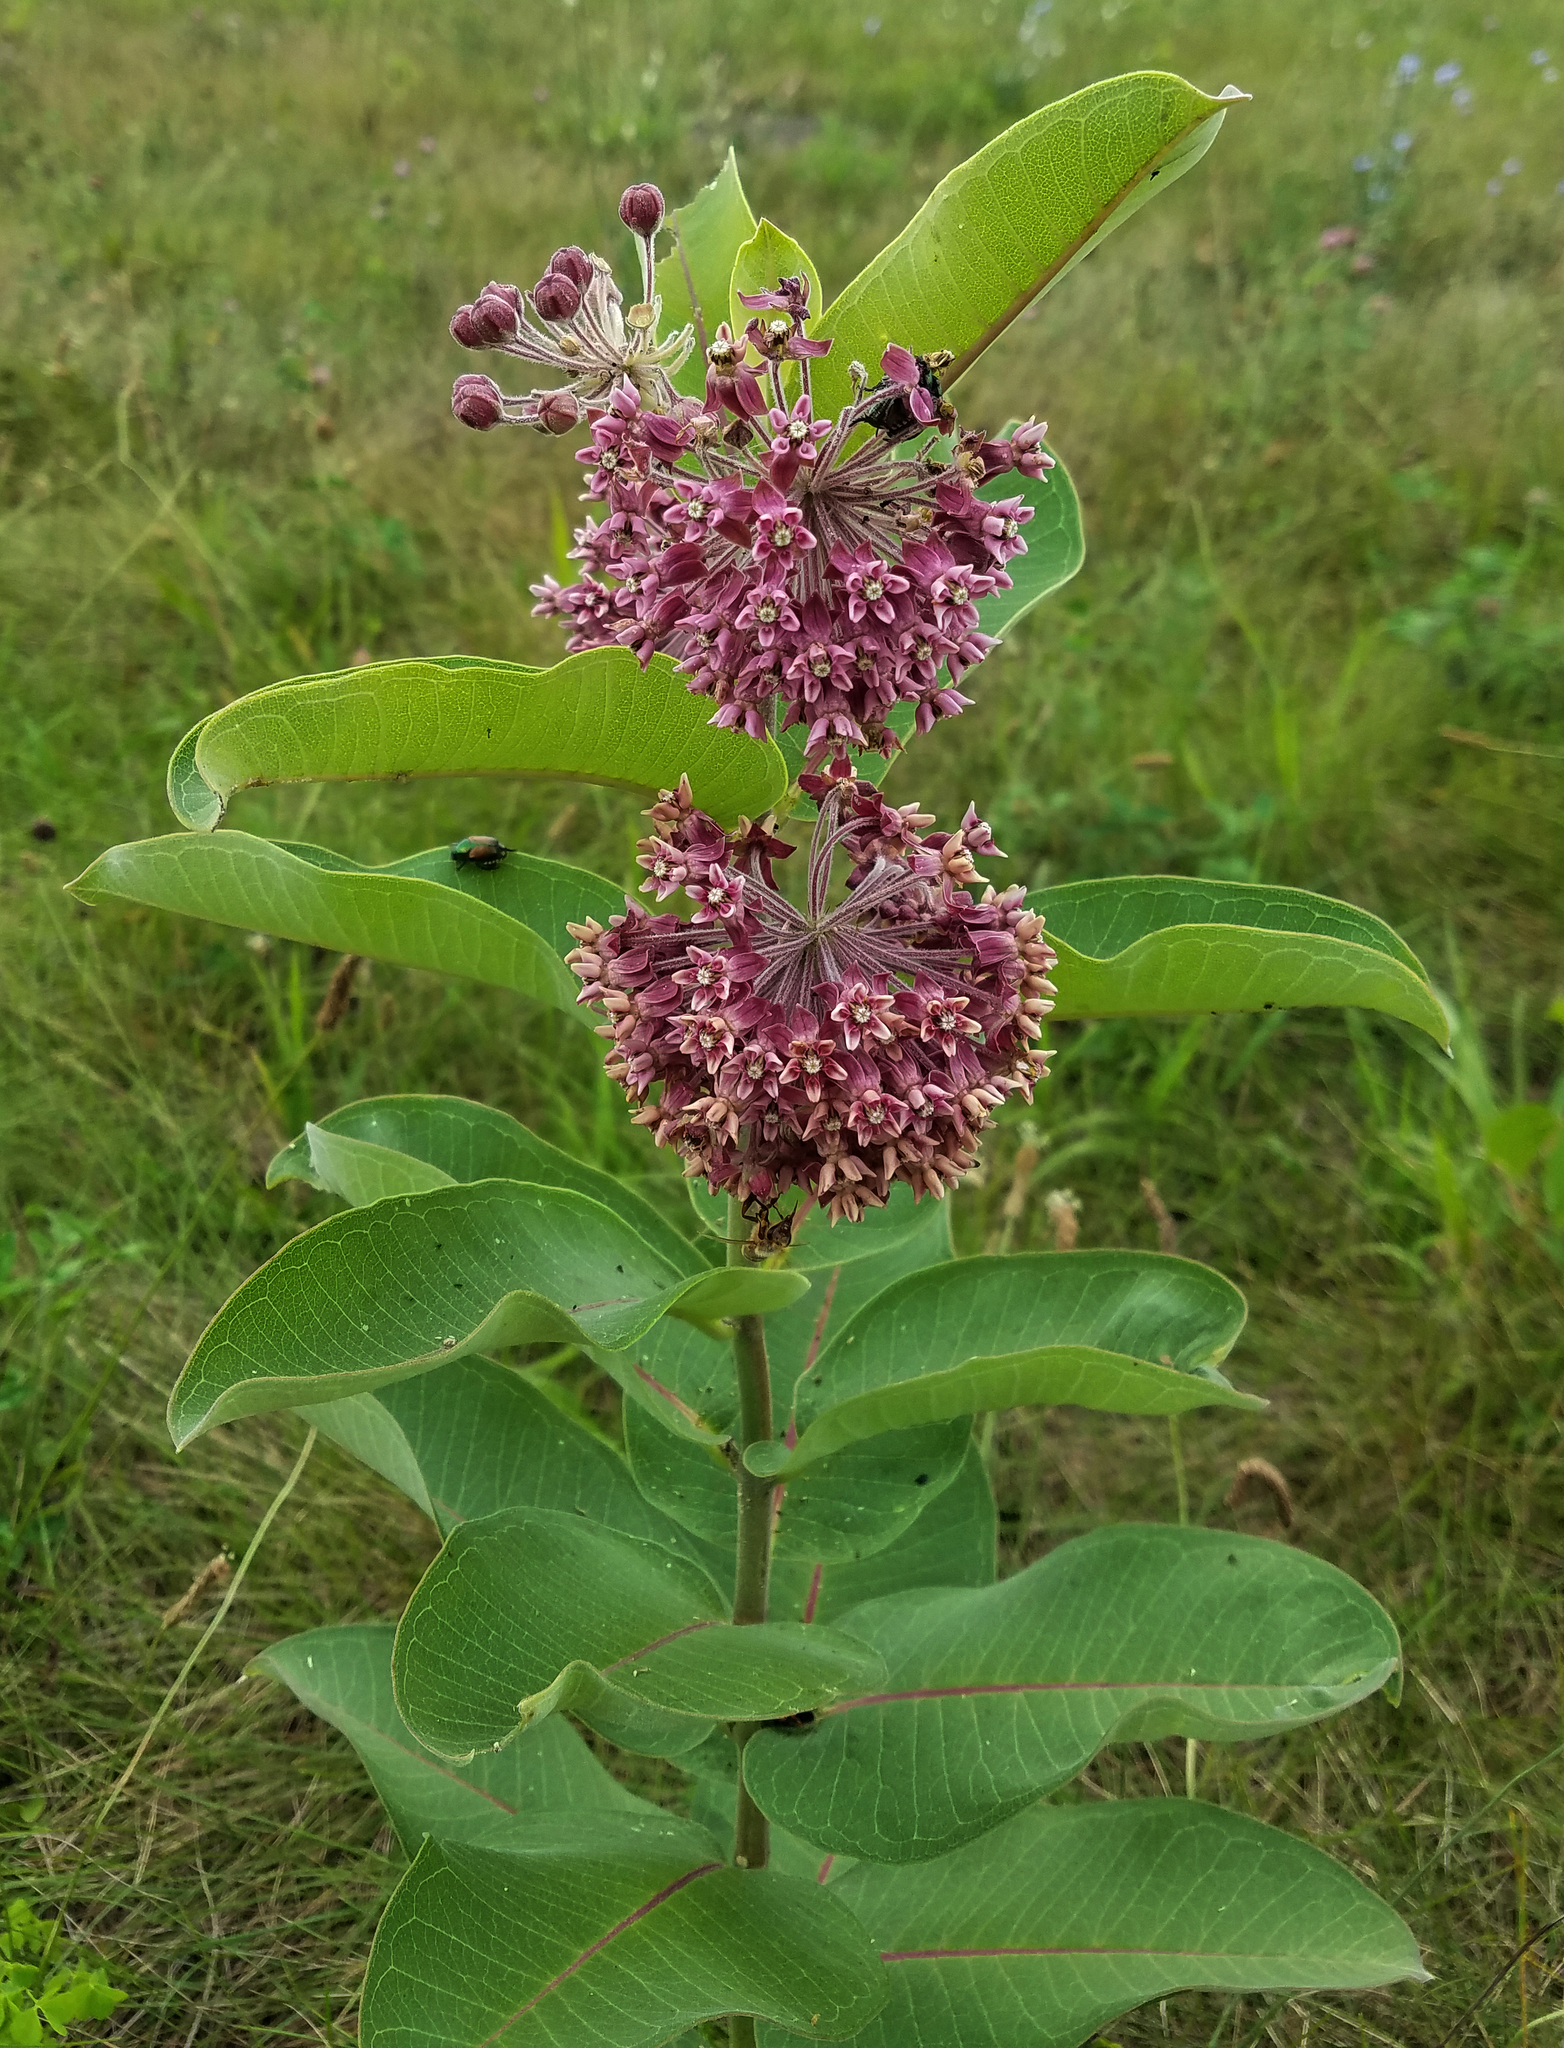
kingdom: Plantae
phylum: Tracheophyta
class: Magnoliopsida
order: Gentianales
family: Apocynaceae
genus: Asclepias
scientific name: Asclepias syriaca
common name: Common milkweed
